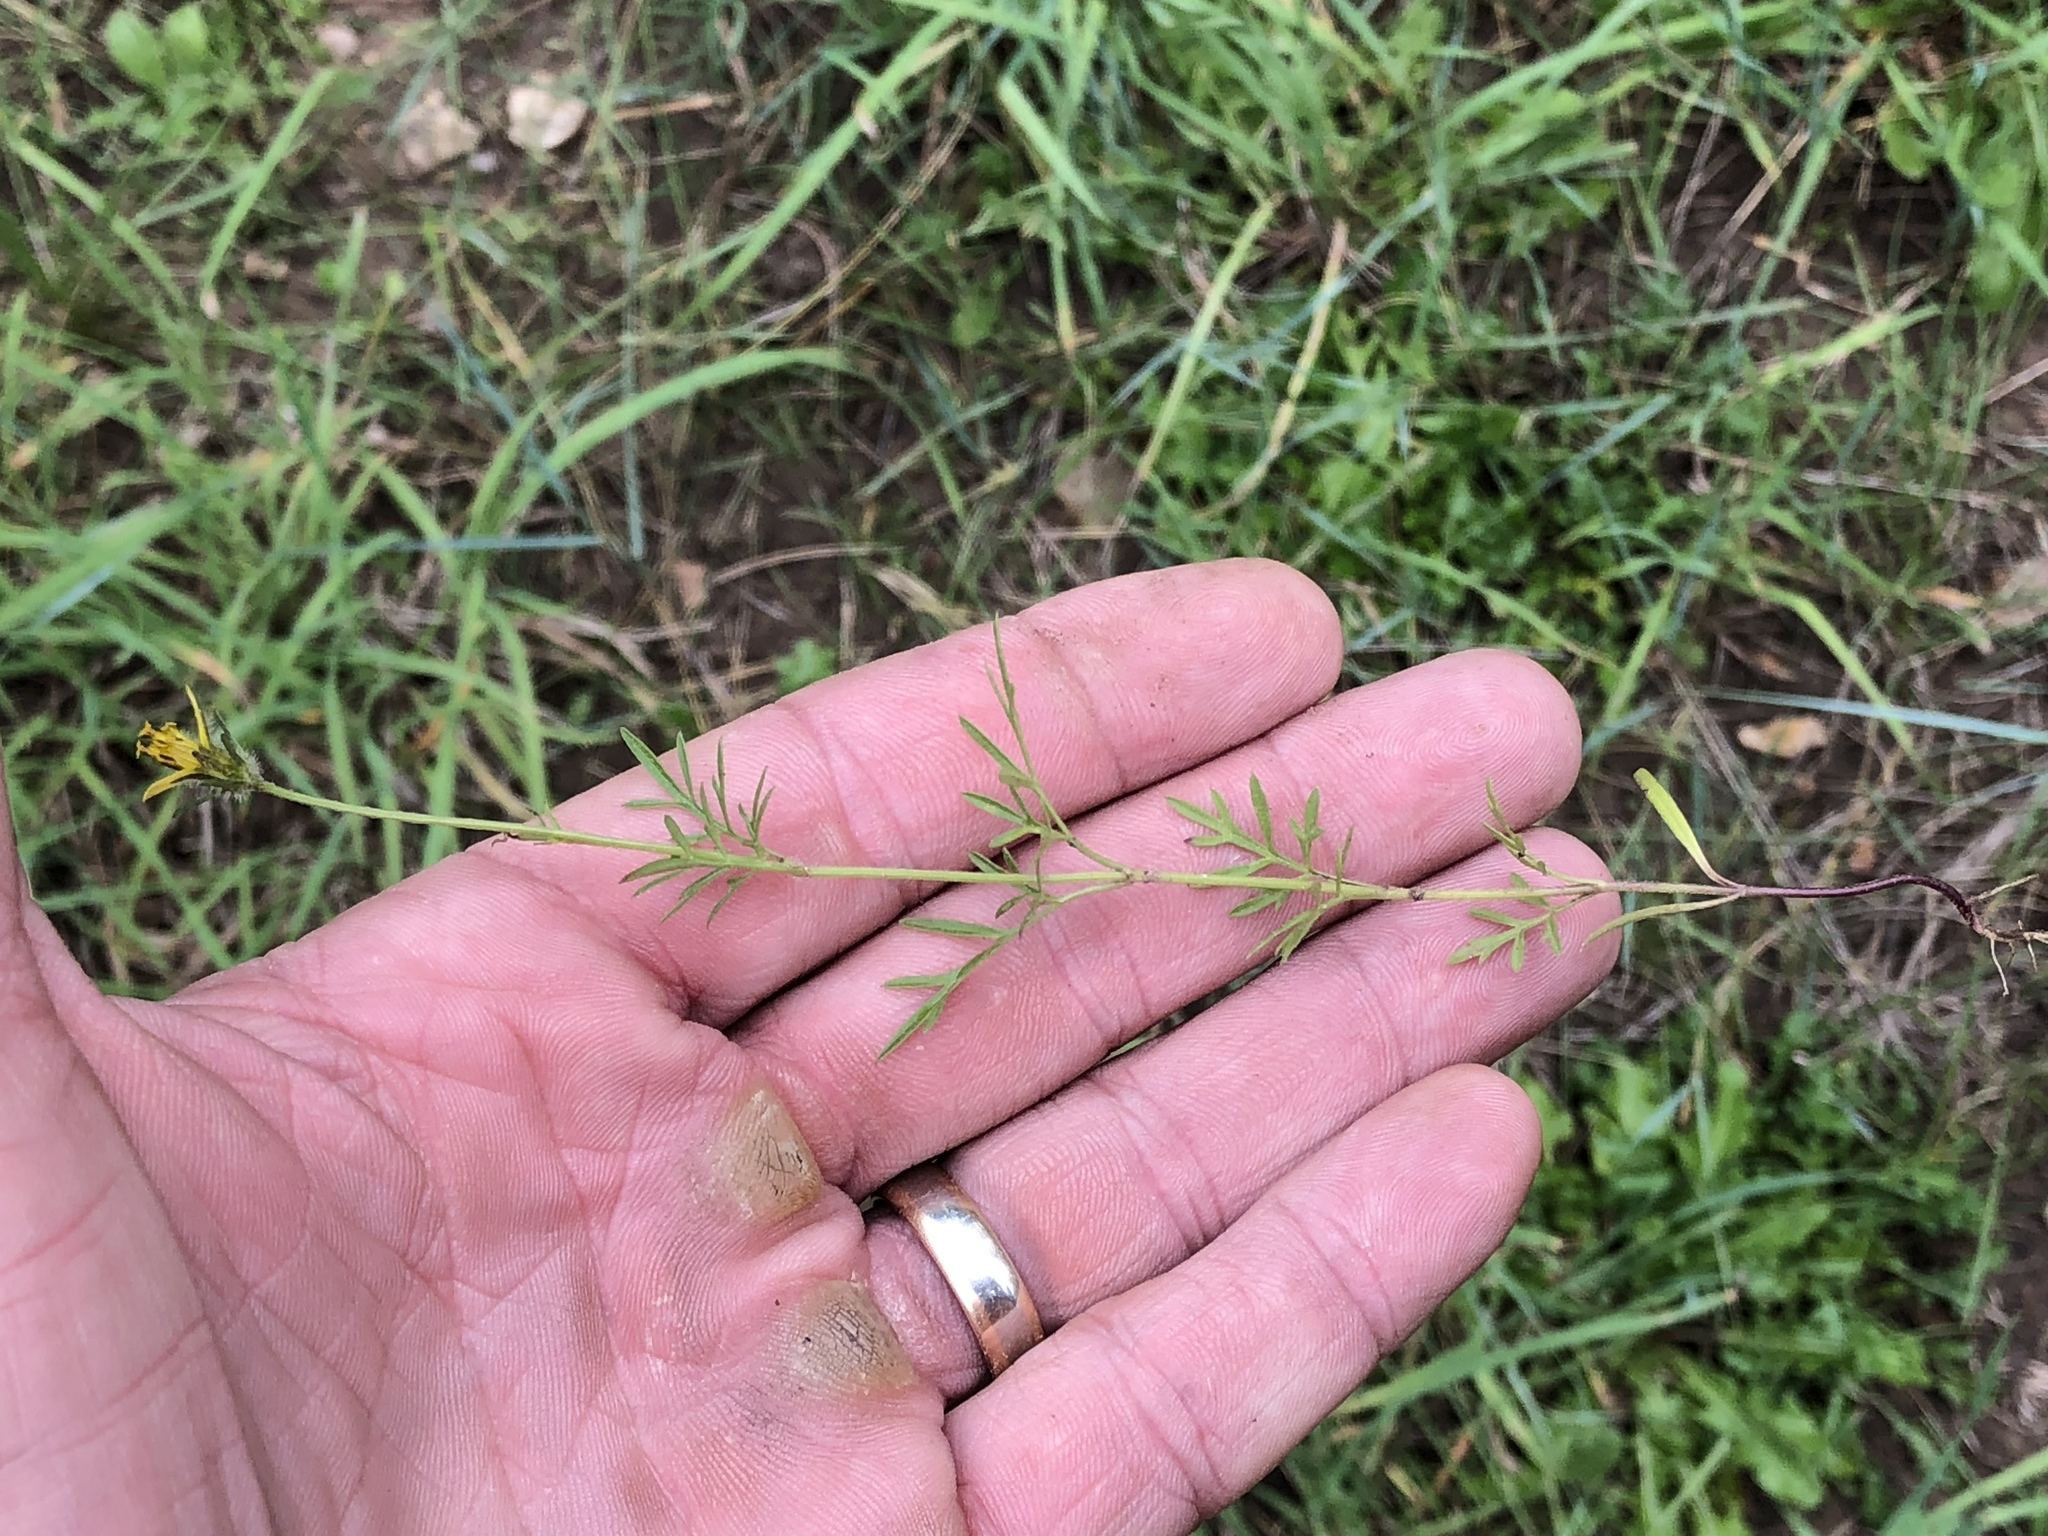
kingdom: Plantae
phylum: Tracheophyta
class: Magnoliopsida
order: Asterales
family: Asteraceae
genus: Cosmos
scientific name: Cosmos parviflorus
